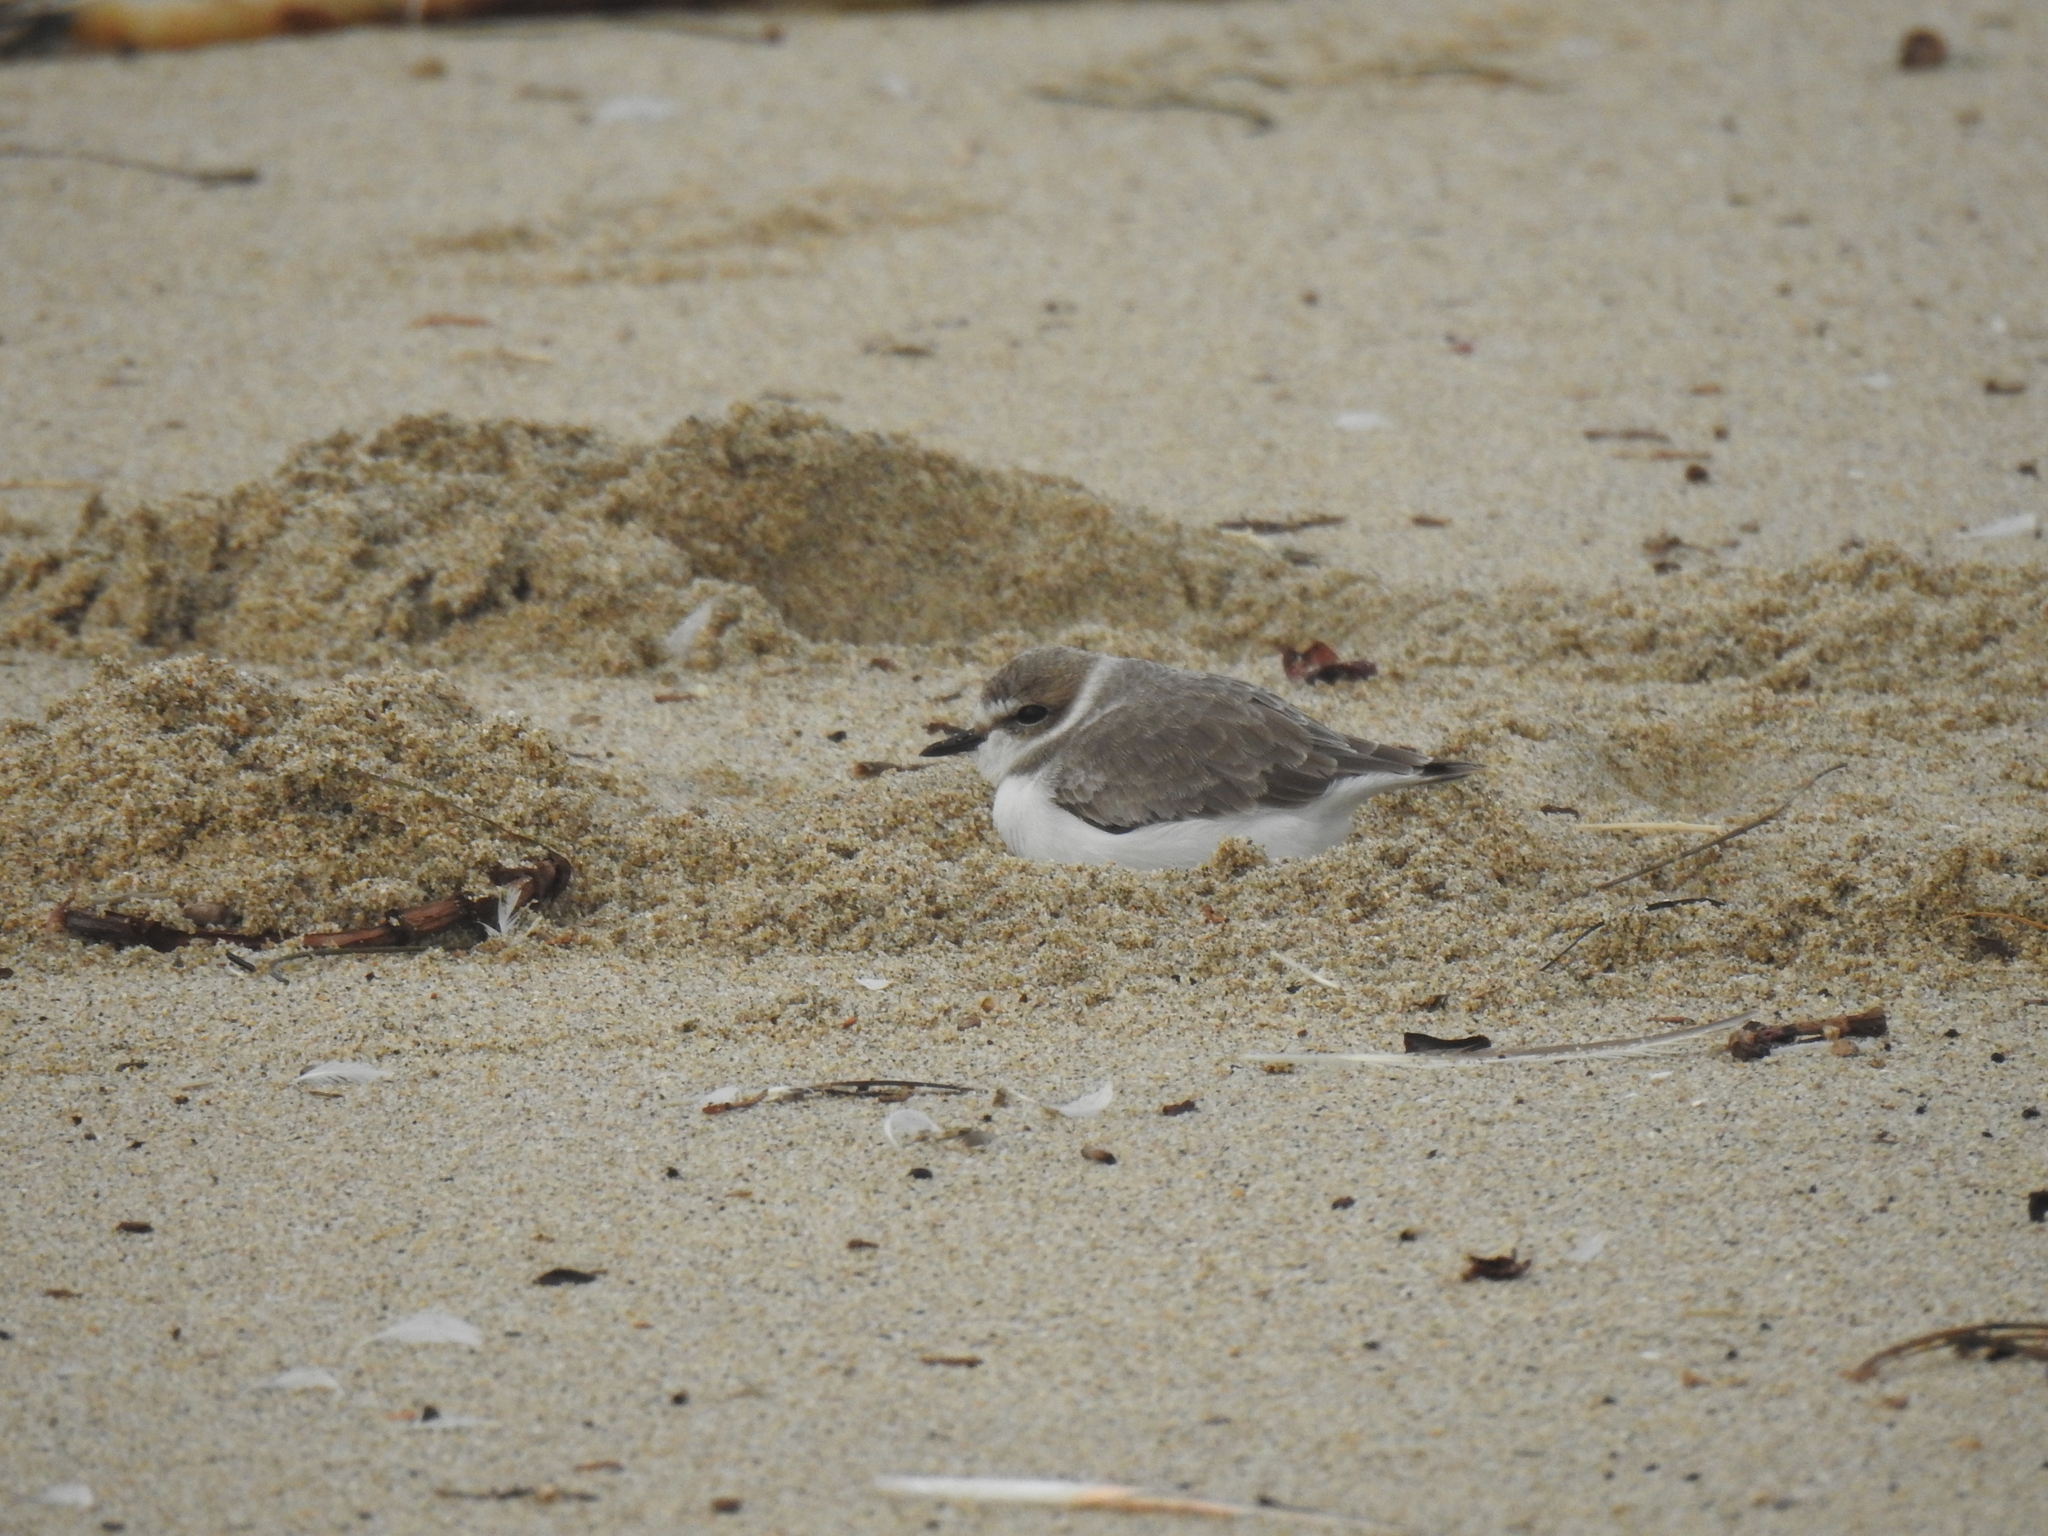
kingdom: Animalia
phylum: Chordata
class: Aves
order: Charadriiformes
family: Charadriidae
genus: Anarhynchus
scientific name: Anarhynchus
